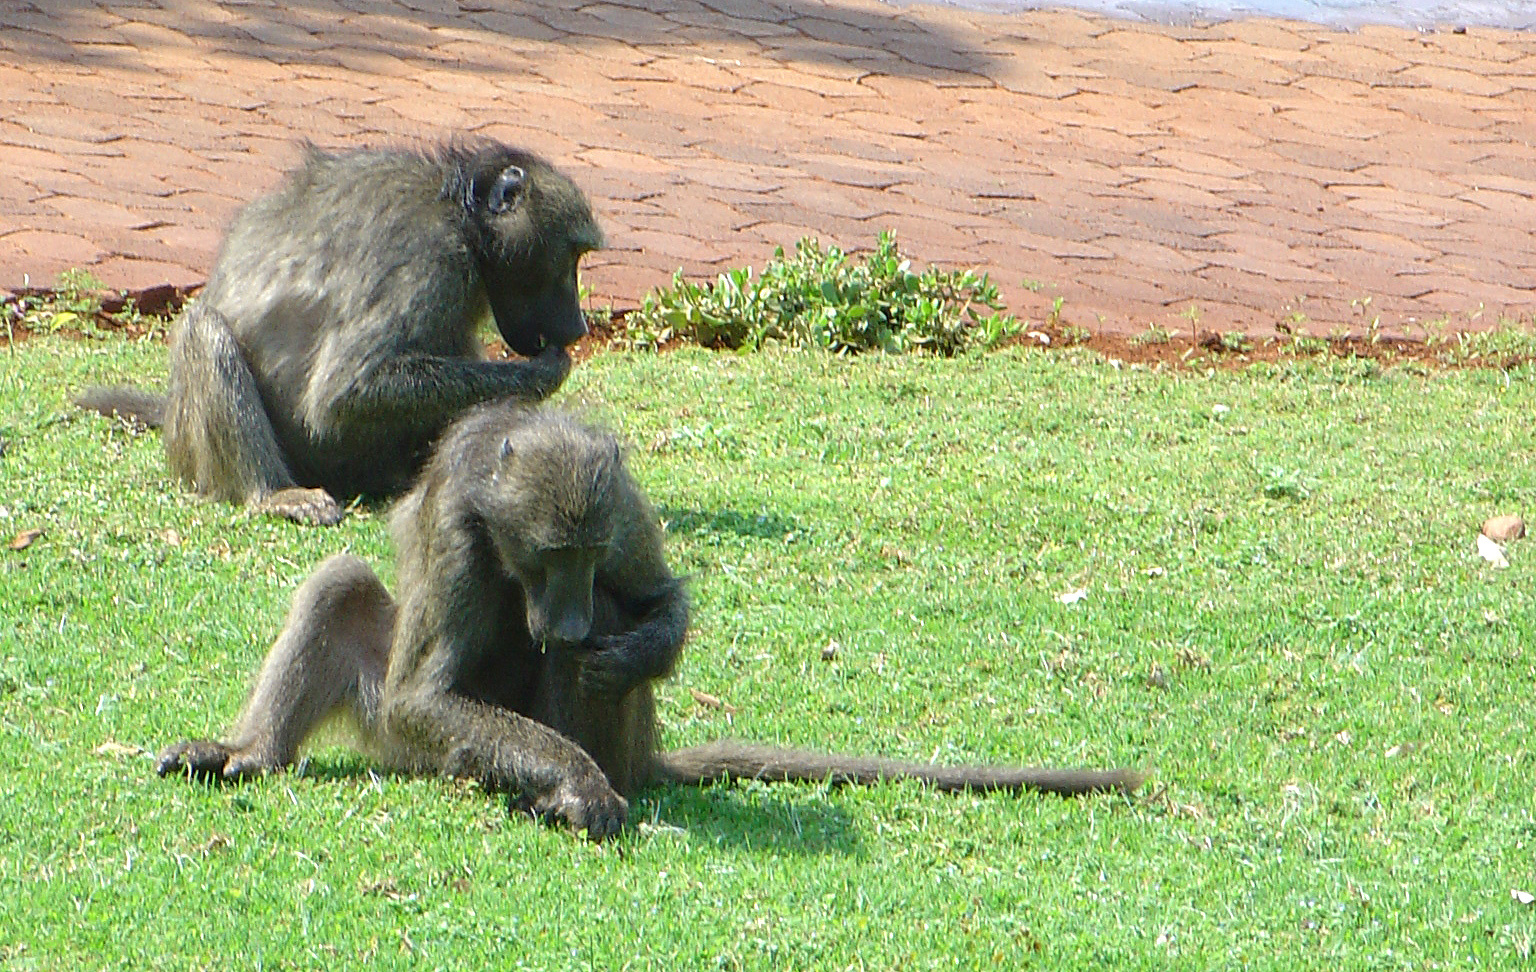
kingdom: Animalia
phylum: Chordata
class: Mammalia
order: Primates
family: Cercopithecidae
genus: Papio
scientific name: Papio ursinus
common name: Chacma baboon
